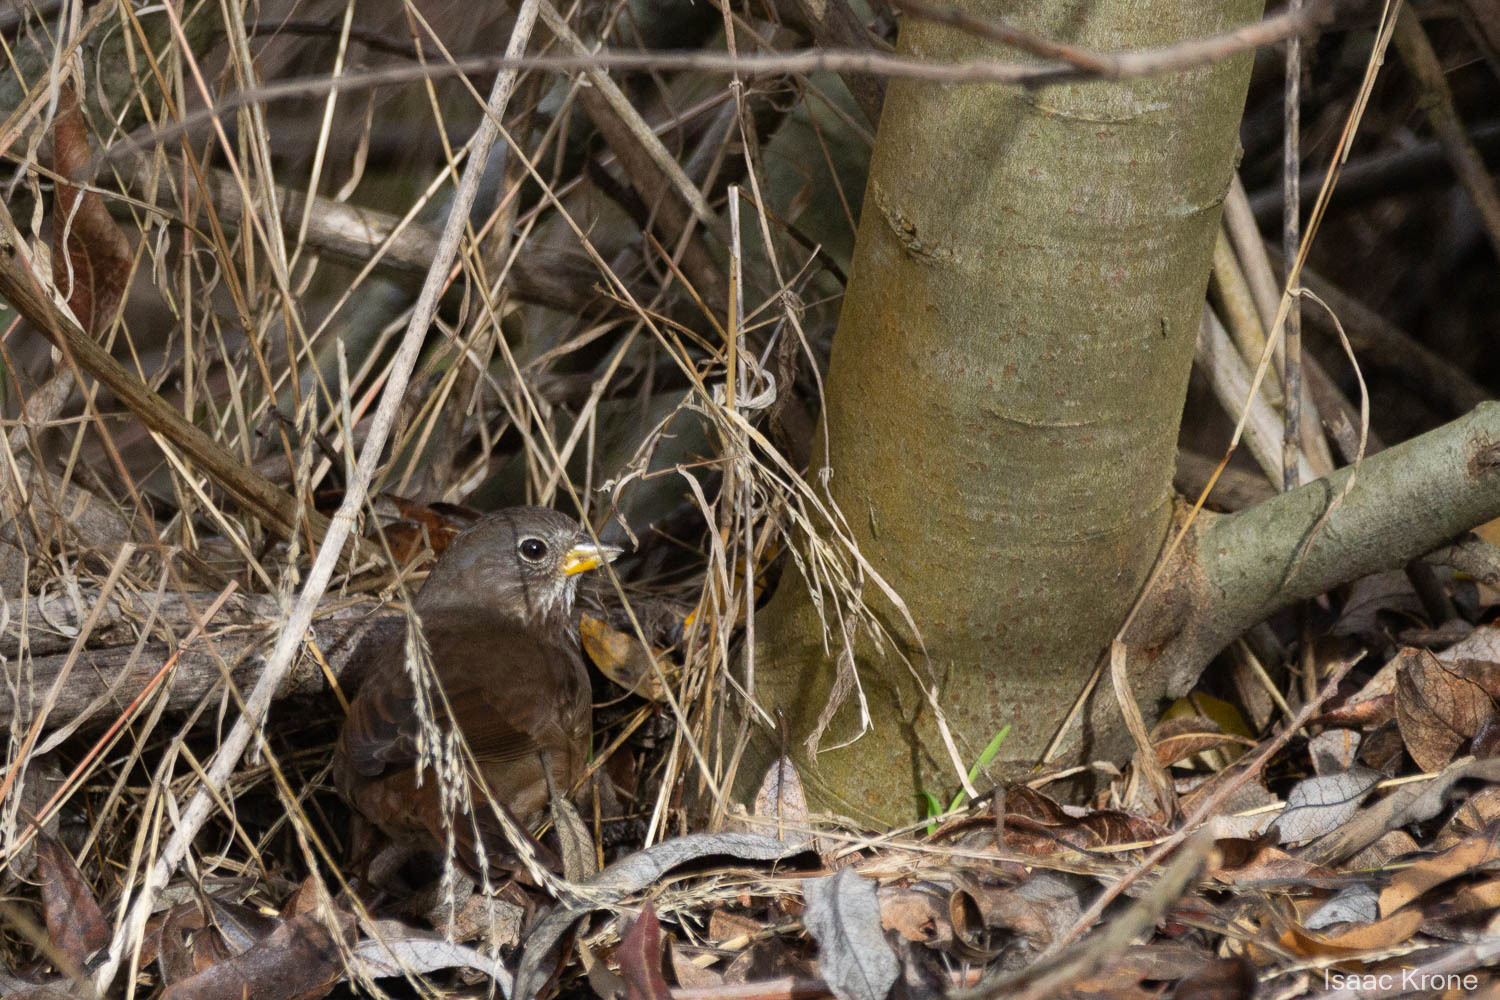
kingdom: Animalia
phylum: Chordata
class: Aves
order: Passeriformes
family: Passerellidae
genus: Passerella
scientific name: Passerella iliaca
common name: Fox sparrow
